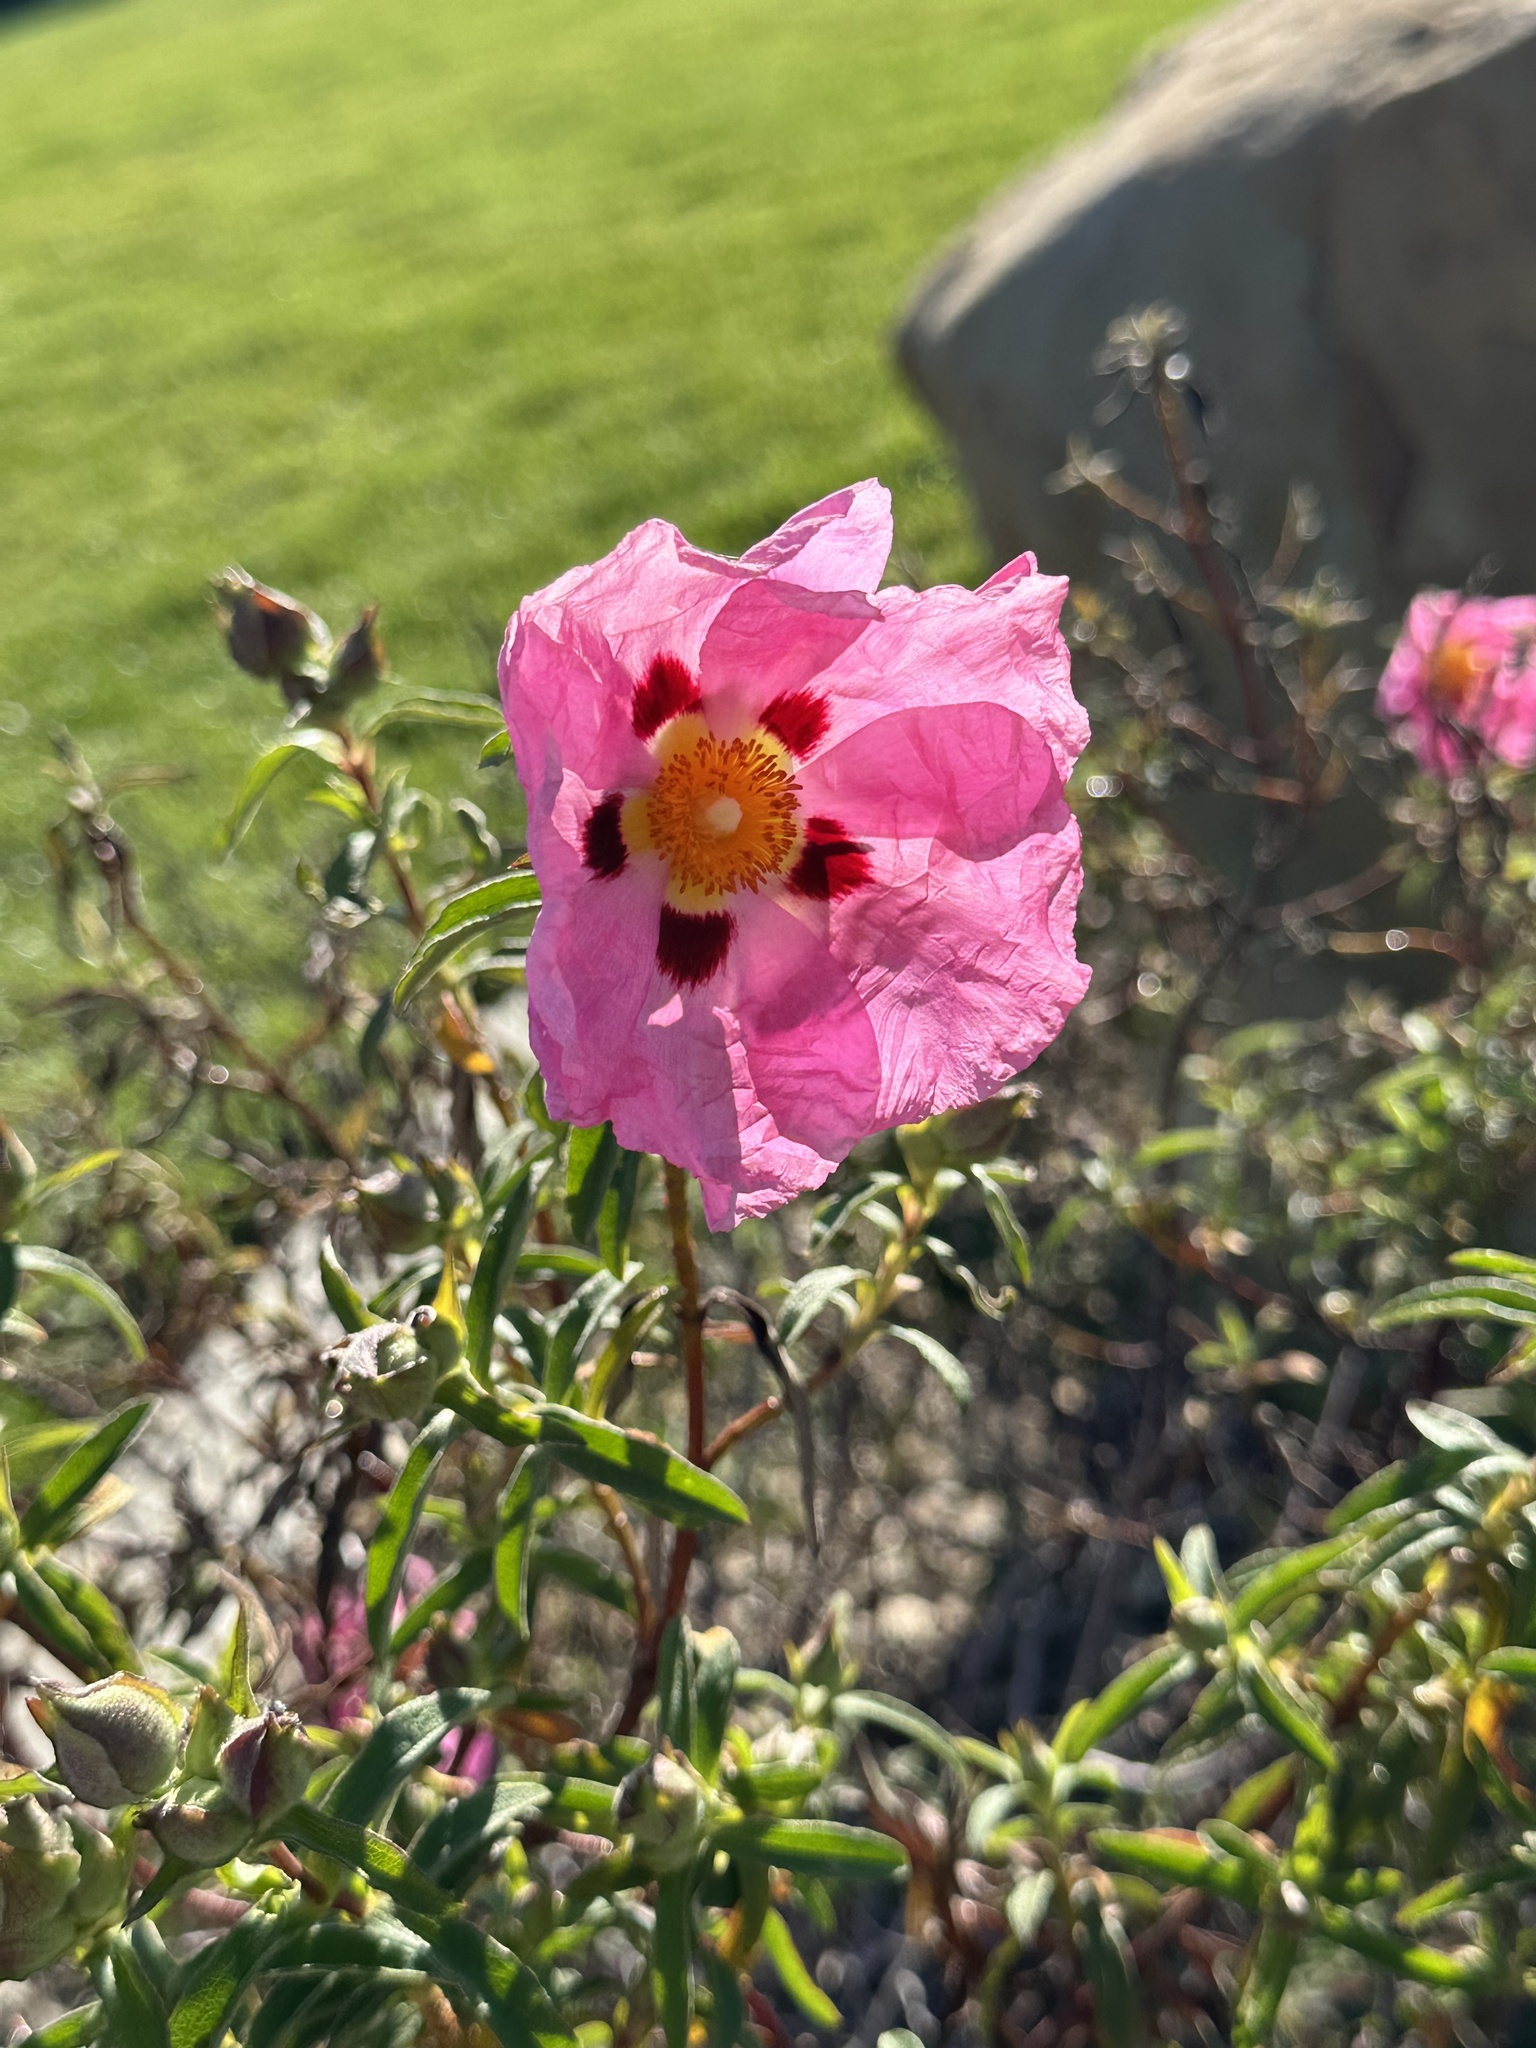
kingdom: Plantae
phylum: Tracheophyta
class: Magnoliopsida
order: Malvales
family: Cistaceae
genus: Cistus
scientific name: Cistus purpureus
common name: Purple cistus
